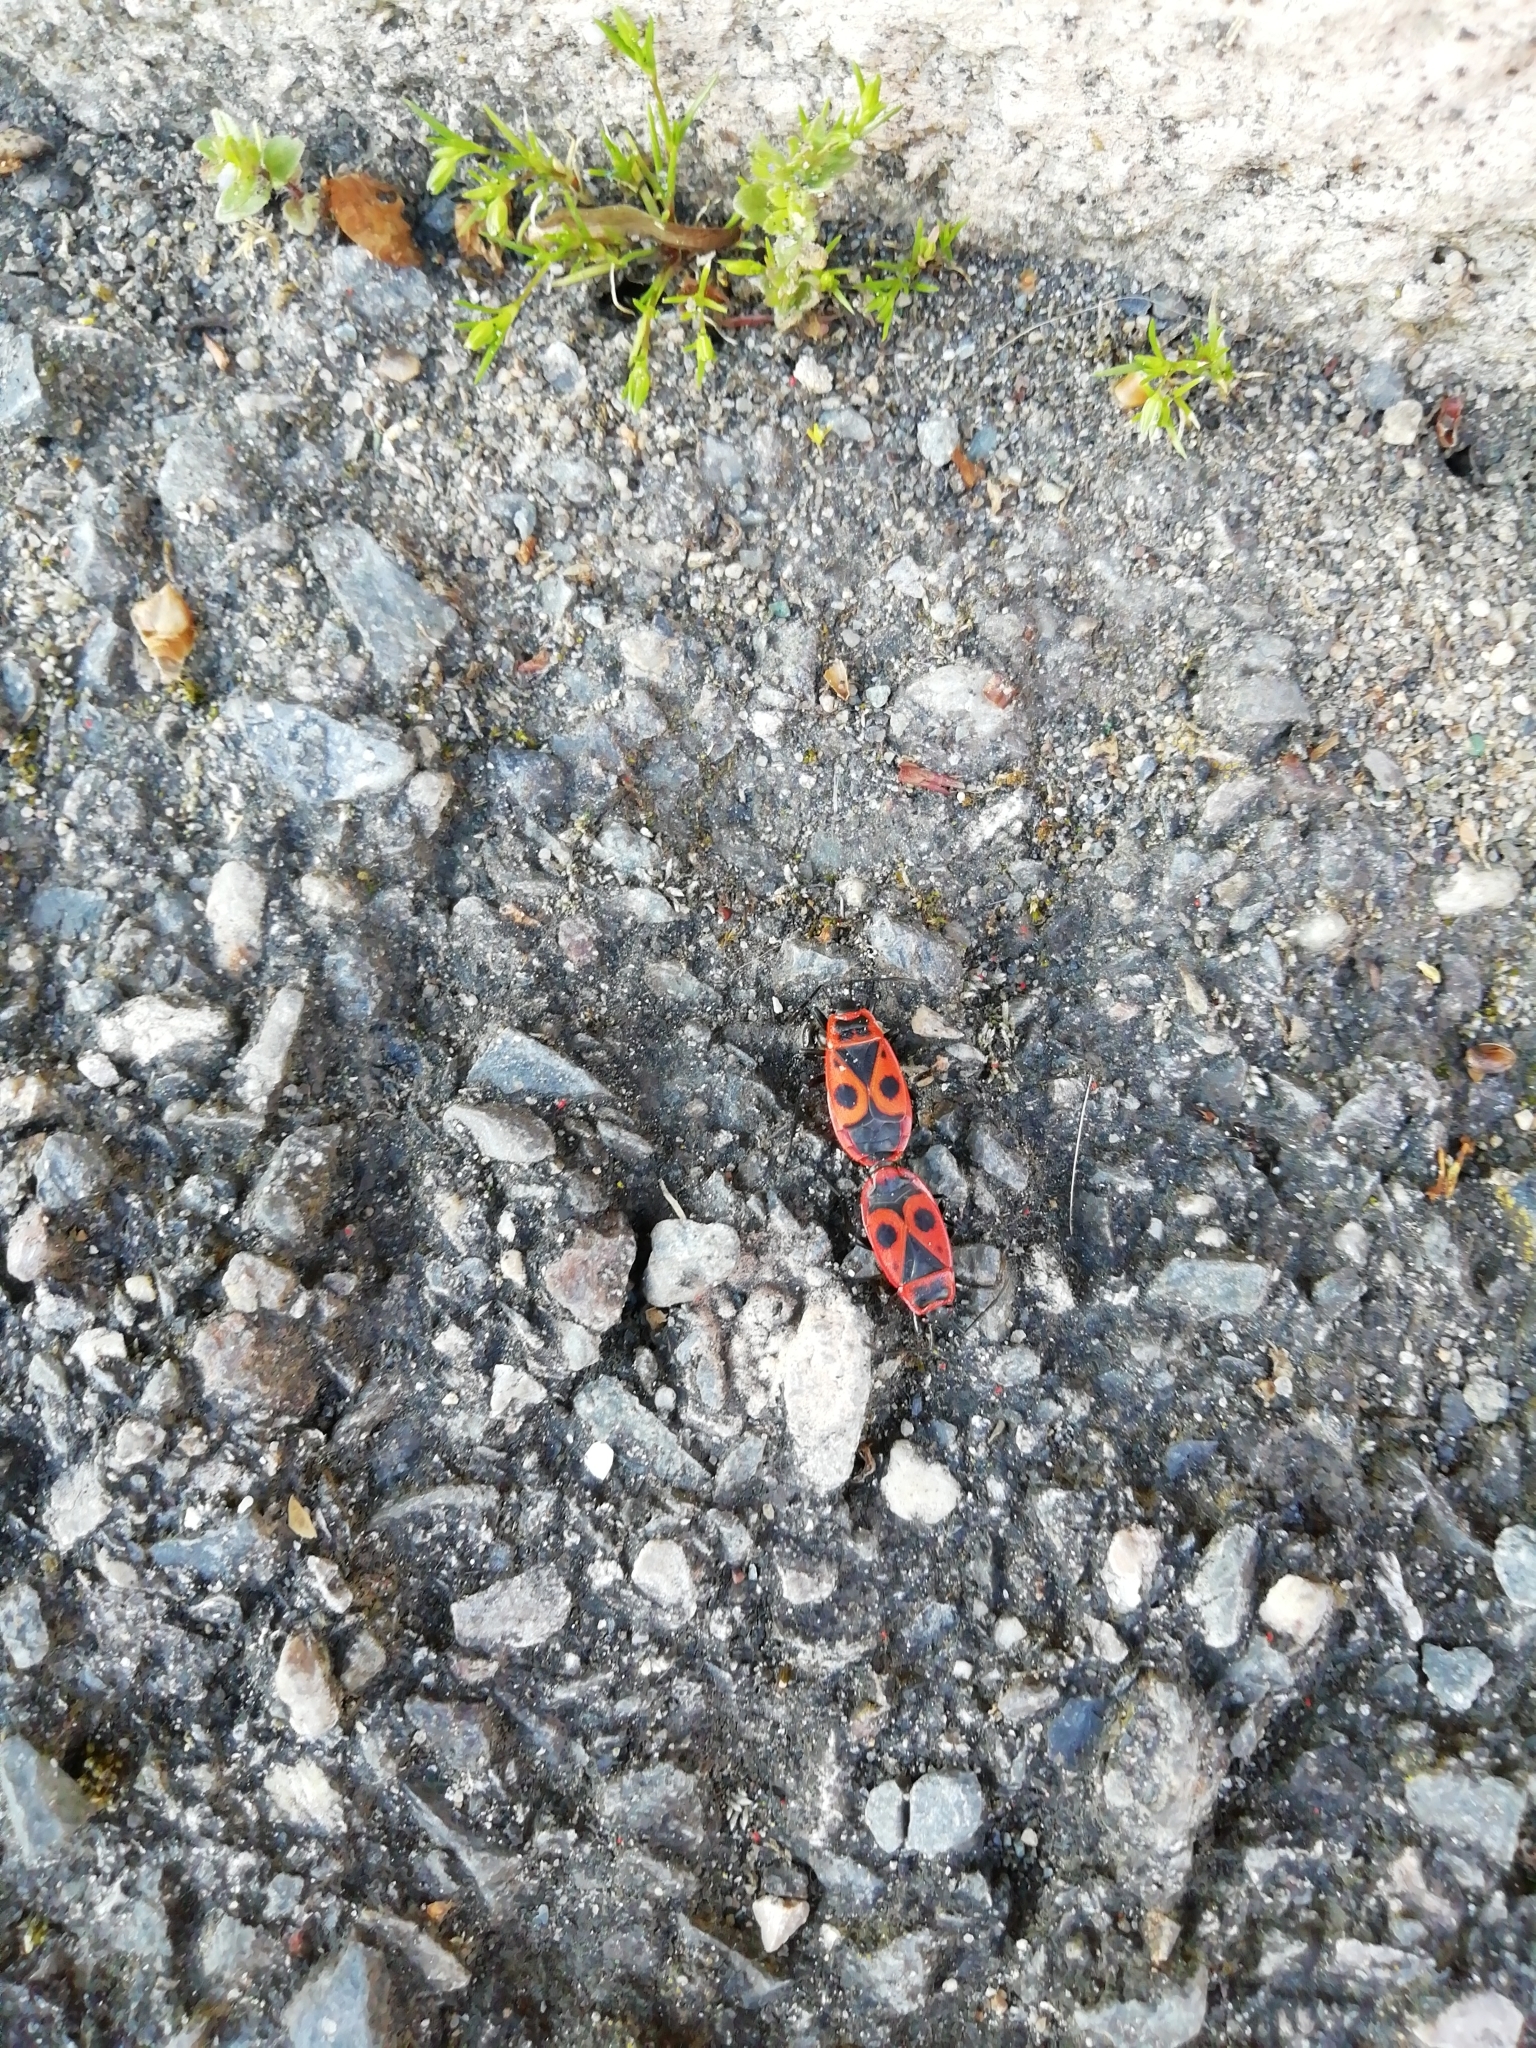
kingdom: Animalia
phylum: Arthropoda
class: Insecta
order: Hemiptera
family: Pyrrhocoridae
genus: Pyrrhocoris
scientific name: Pyrrhocoris apterus
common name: Firebug
